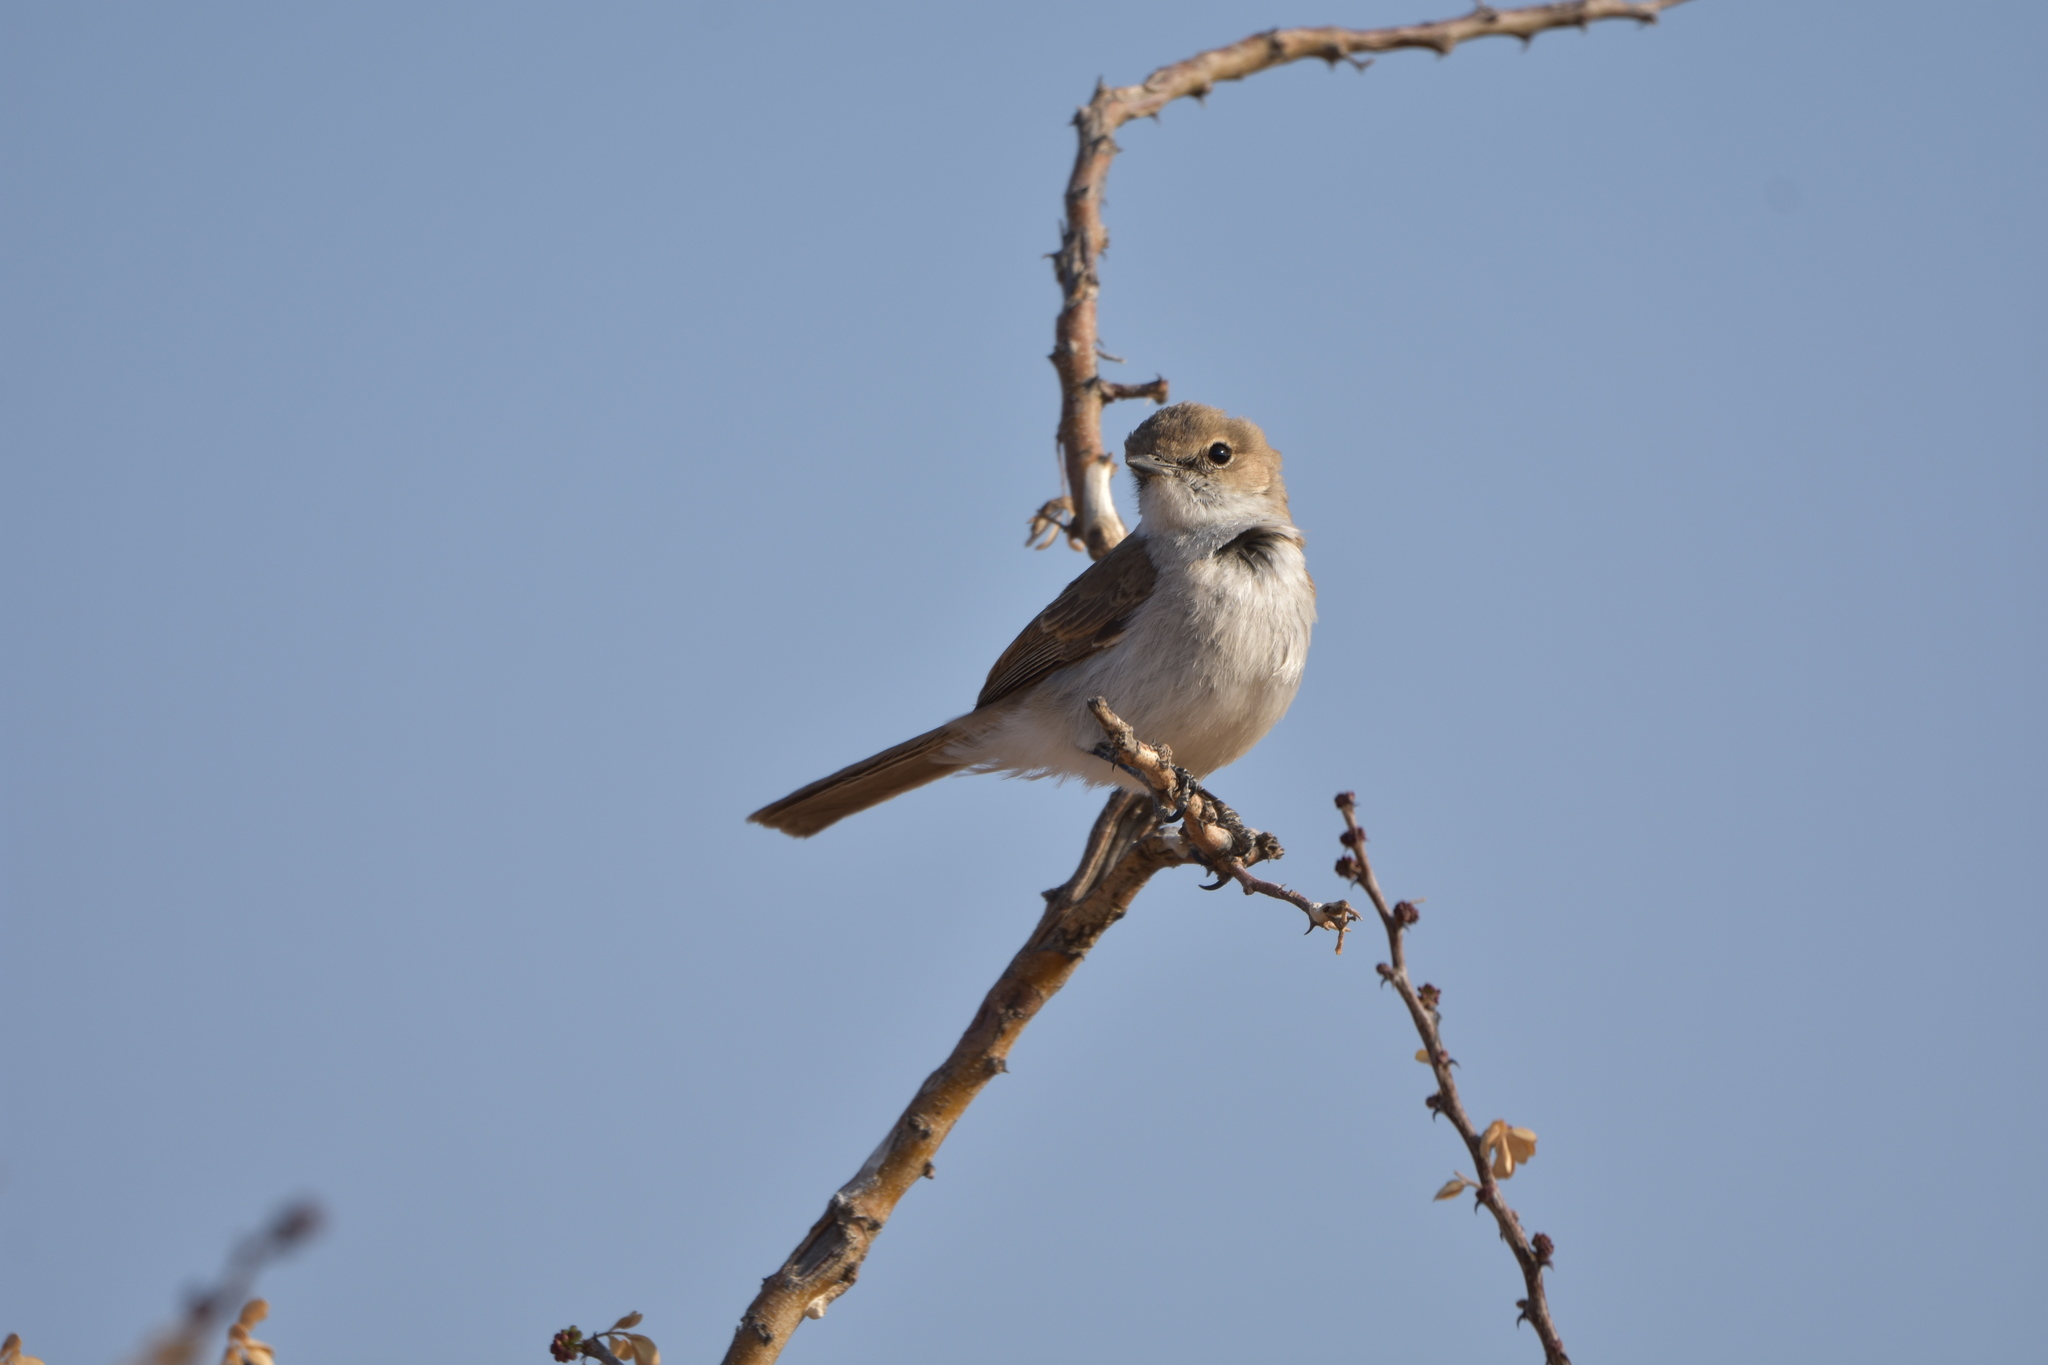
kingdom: Animalia
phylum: Chordata
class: Aves
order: Passeriformes
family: Muscicapidae
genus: Bradornis
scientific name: Bradornis mariquensis
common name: Marico flycatcher
